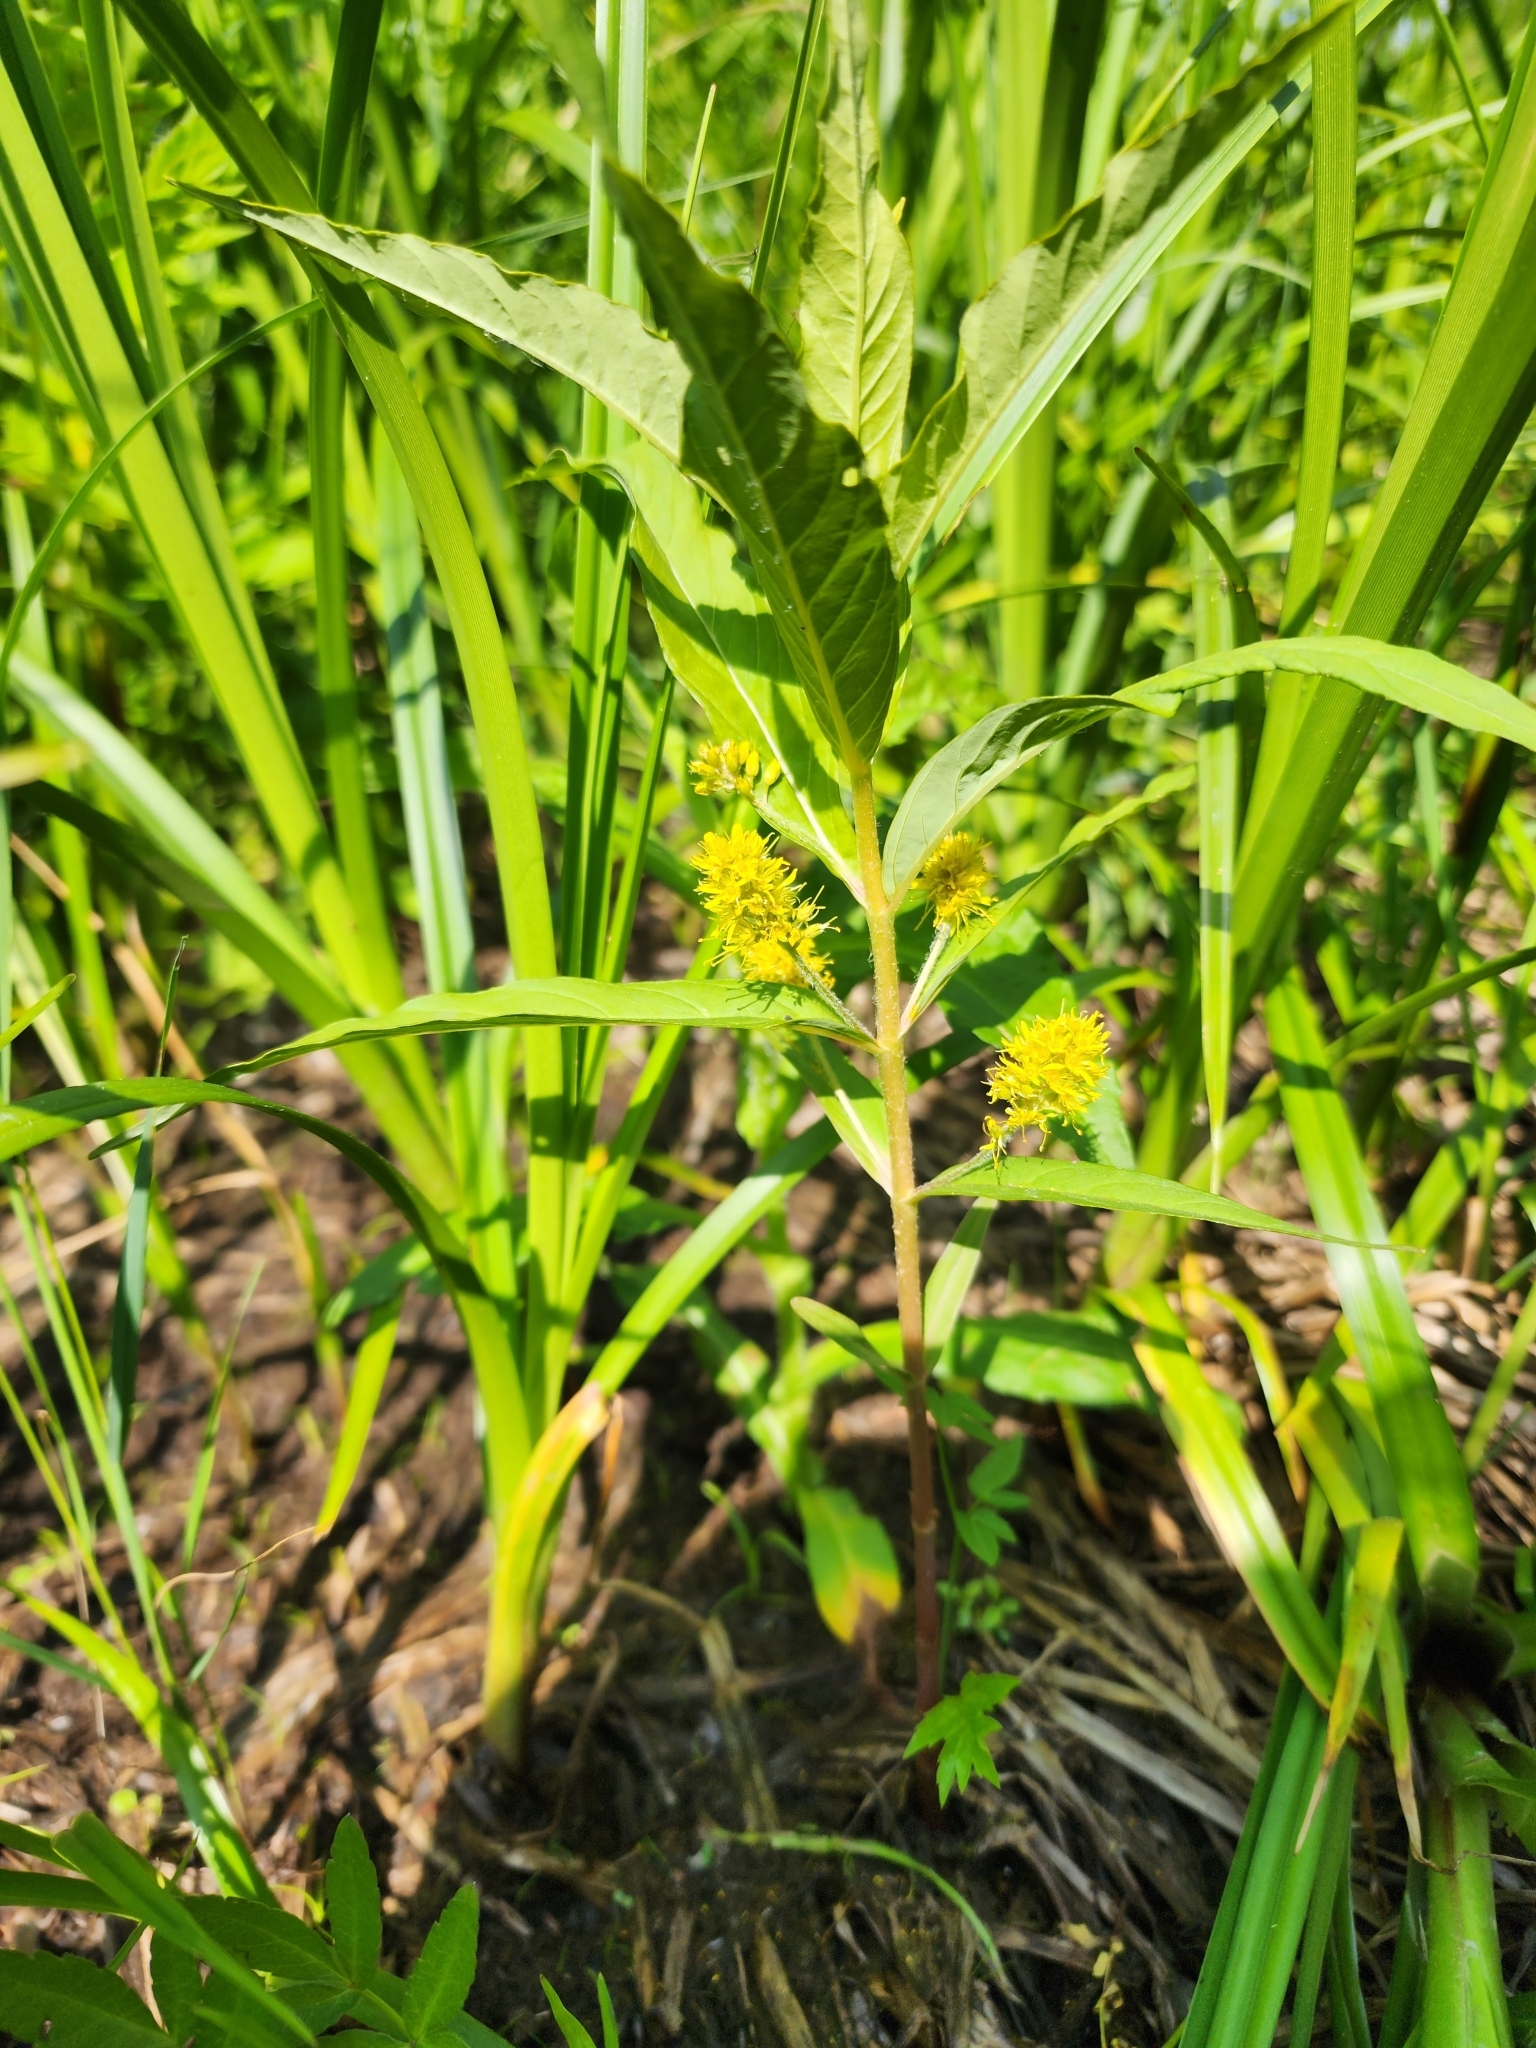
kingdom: Plantae
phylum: Tracheophyta
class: Magnoliopsida
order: Ericales
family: Primulaceae
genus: Lysimachia
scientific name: Lysimachia thyrsiflora
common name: Tufted loosestrife
